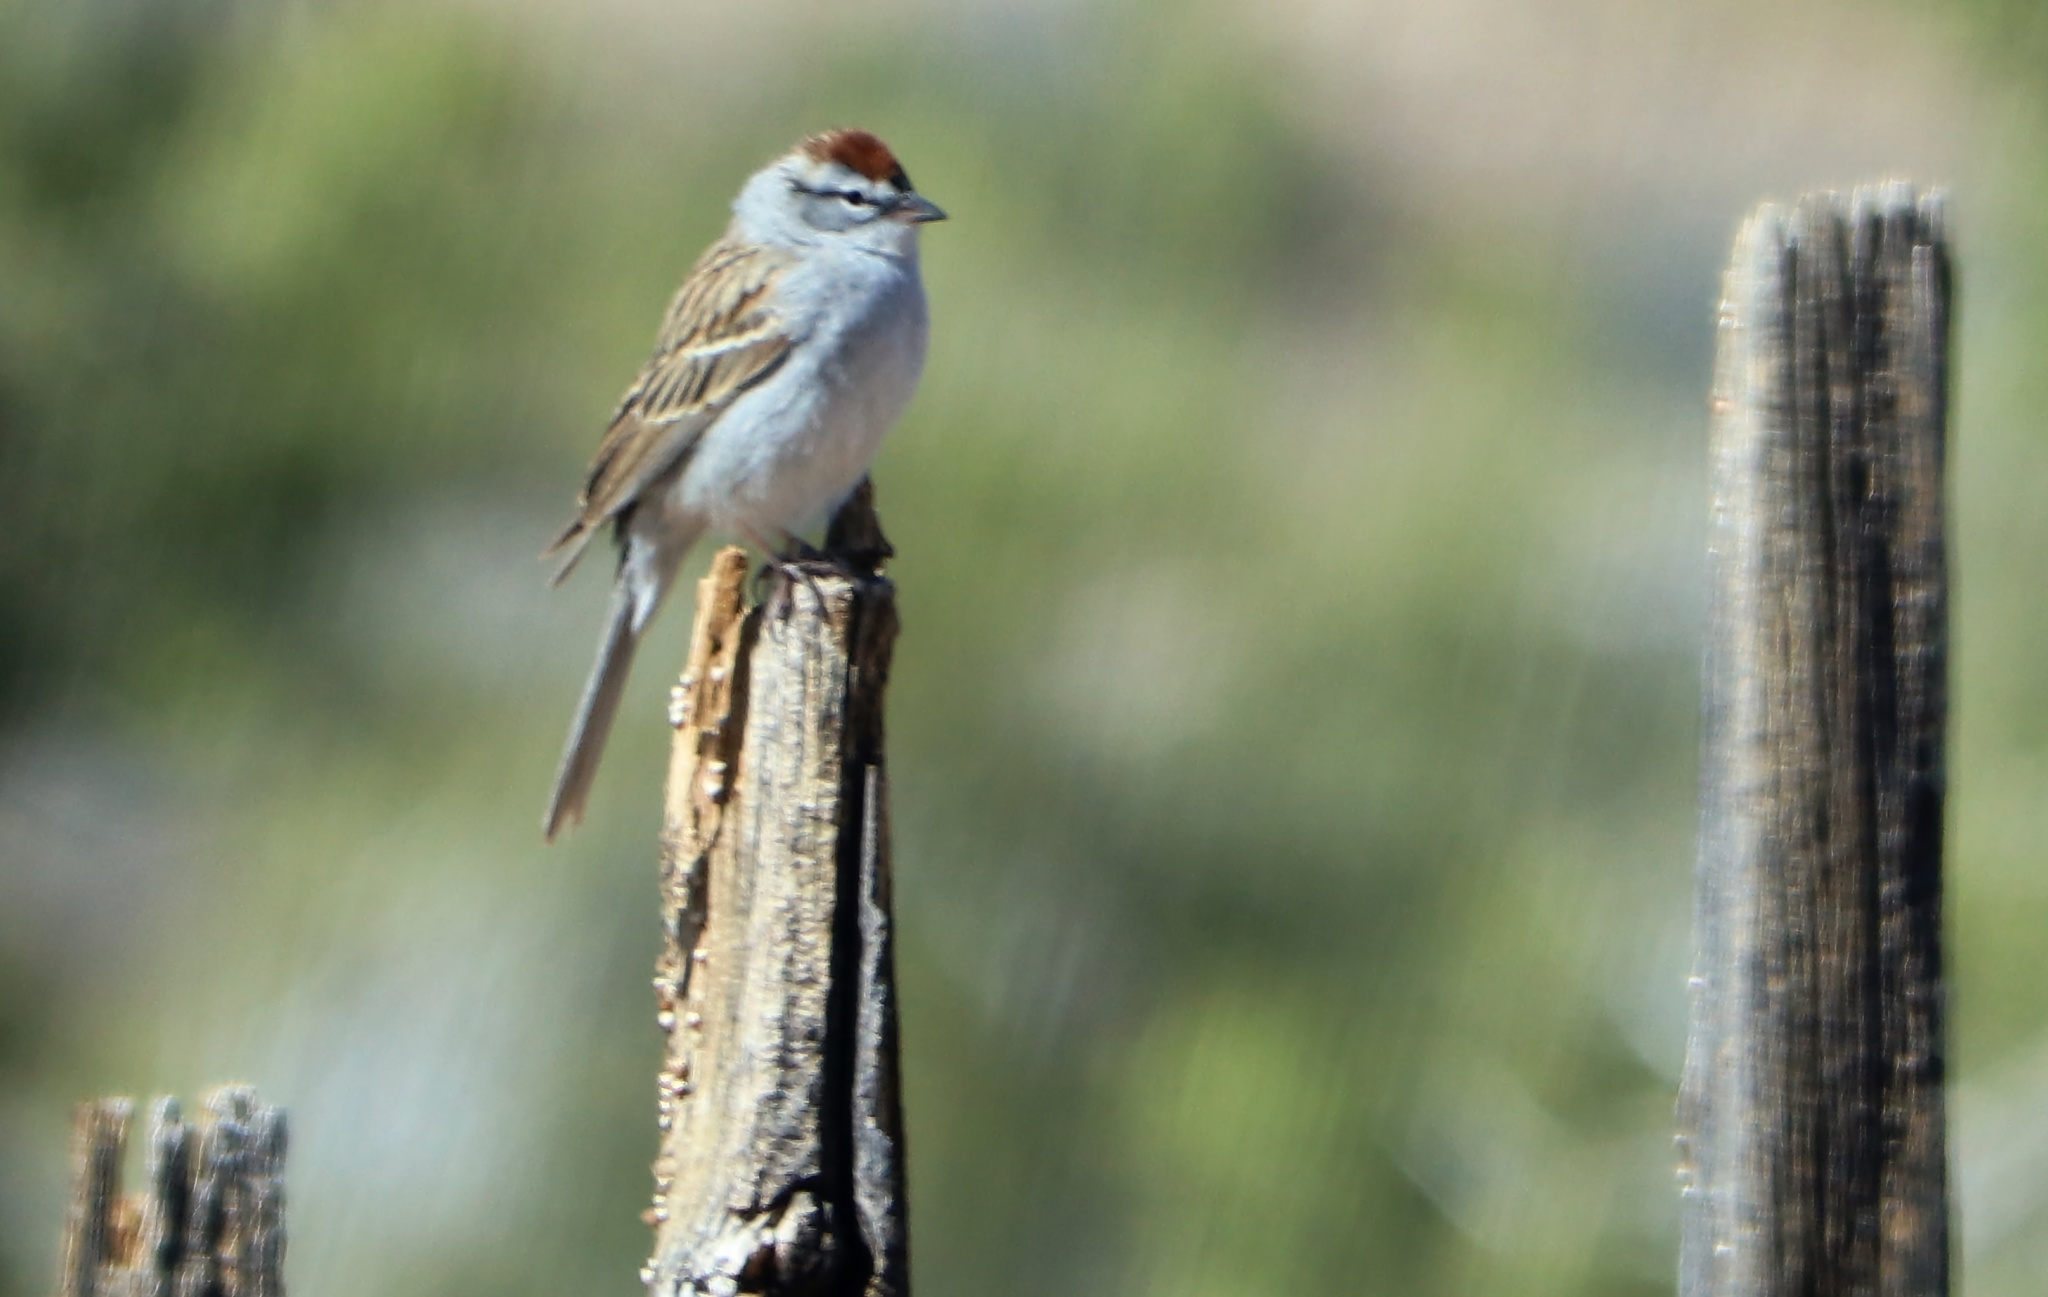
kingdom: Animalia
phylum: Chordata
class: Aves
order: Passeriformes
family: Passerellidae
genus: Spizella
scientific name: Spizella passerina
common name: Chipping sparrow
